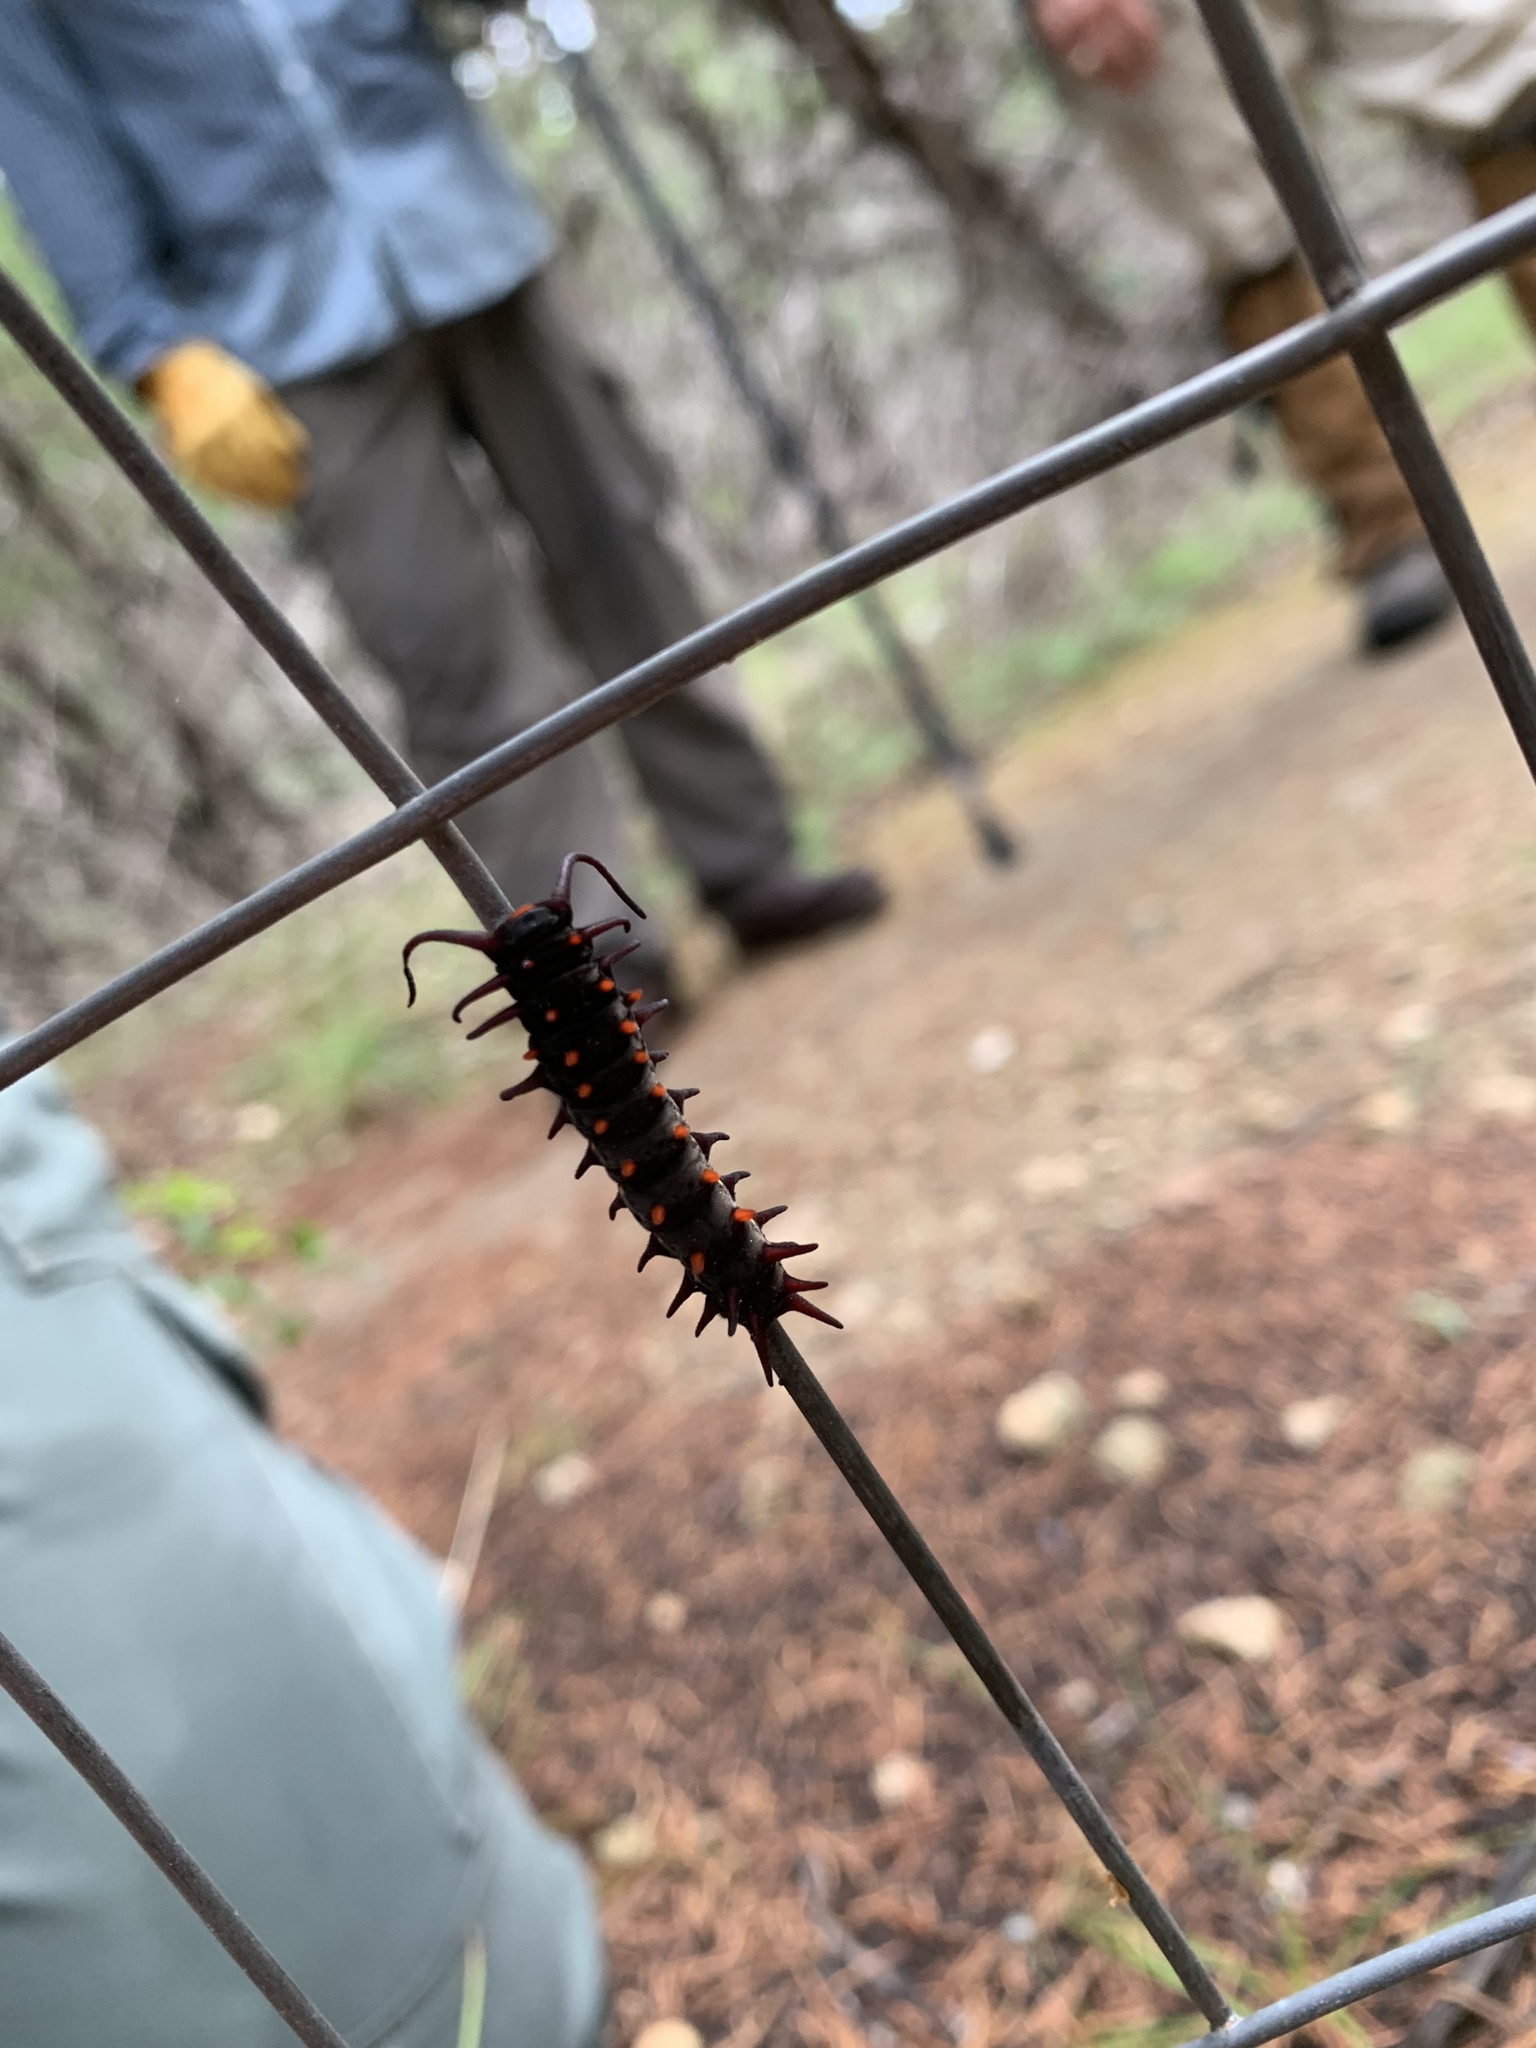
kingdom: Animalia
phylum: Arthropoda
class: Insecta
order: Lepidoptera
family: Papilionidae
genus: Battus
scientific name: Battus philenor
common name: Pipevine swallowtail
